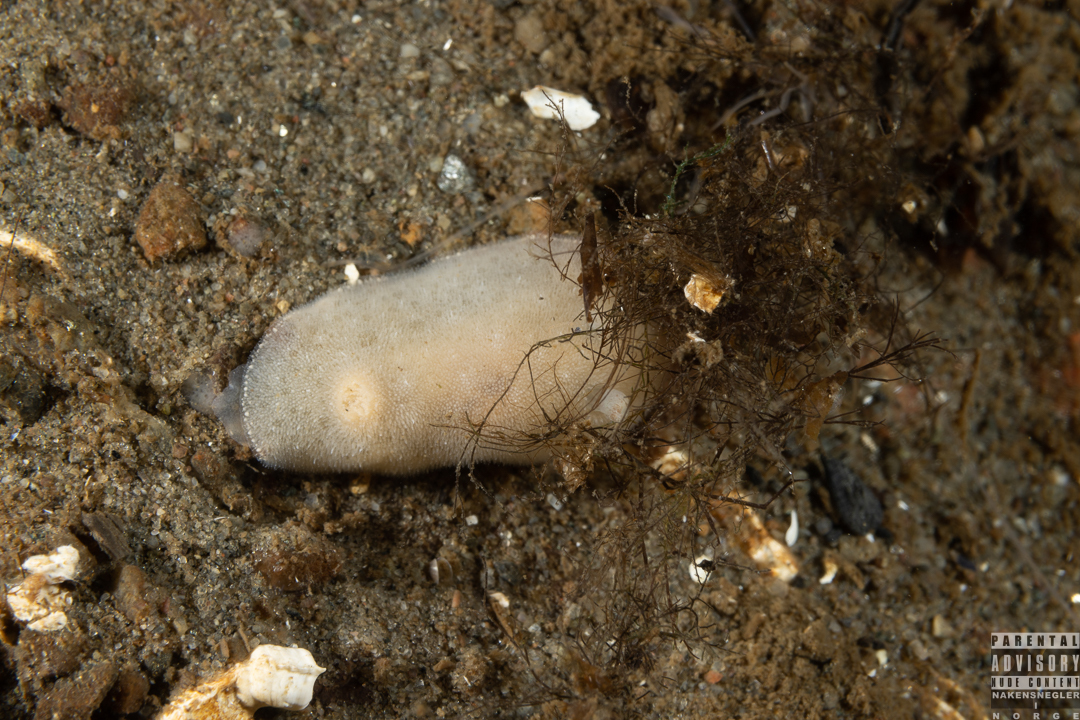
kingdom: Animalia
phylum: Mollusca
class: Gastropoda
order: Nudibranchia
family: Discodorididae
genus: Jorunna
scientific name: Jorunna tomentosa
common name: Grey sea slug
